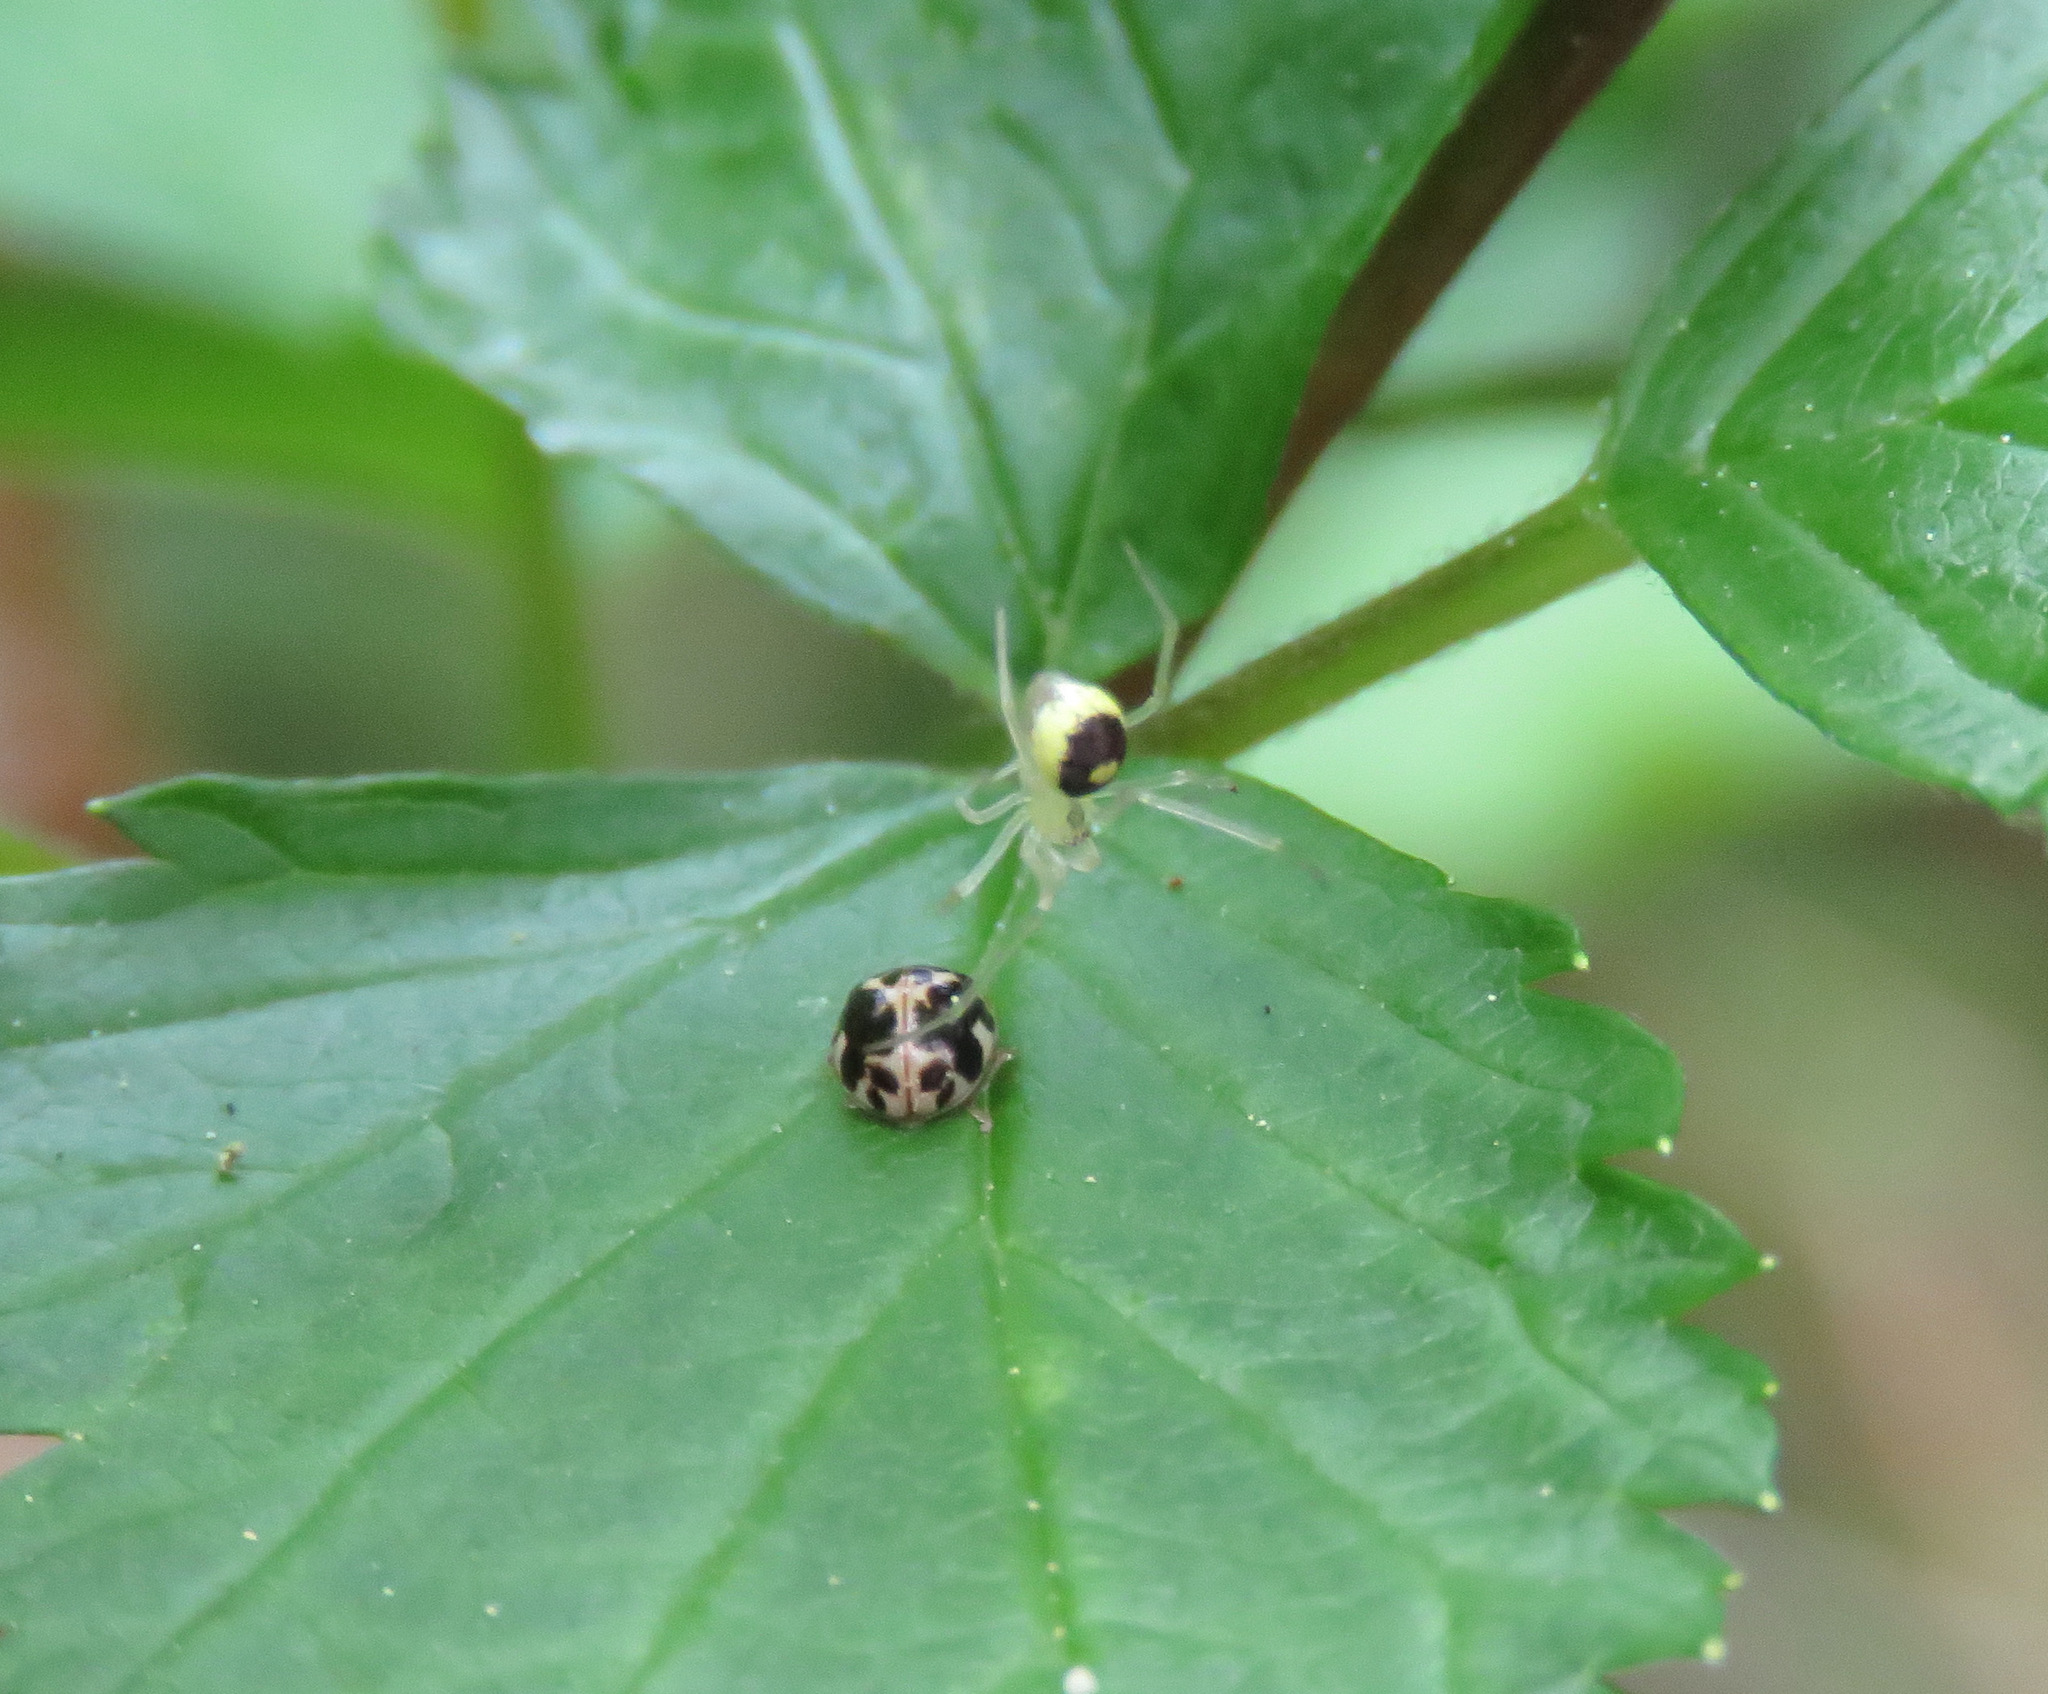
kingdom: Animalia
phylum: Arthropoda
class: Insecta
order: Coleoptera
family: Coccinellidae
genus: Psyllobora
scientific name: Psyllobora vigintimaculata
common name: Ladybird beetle
